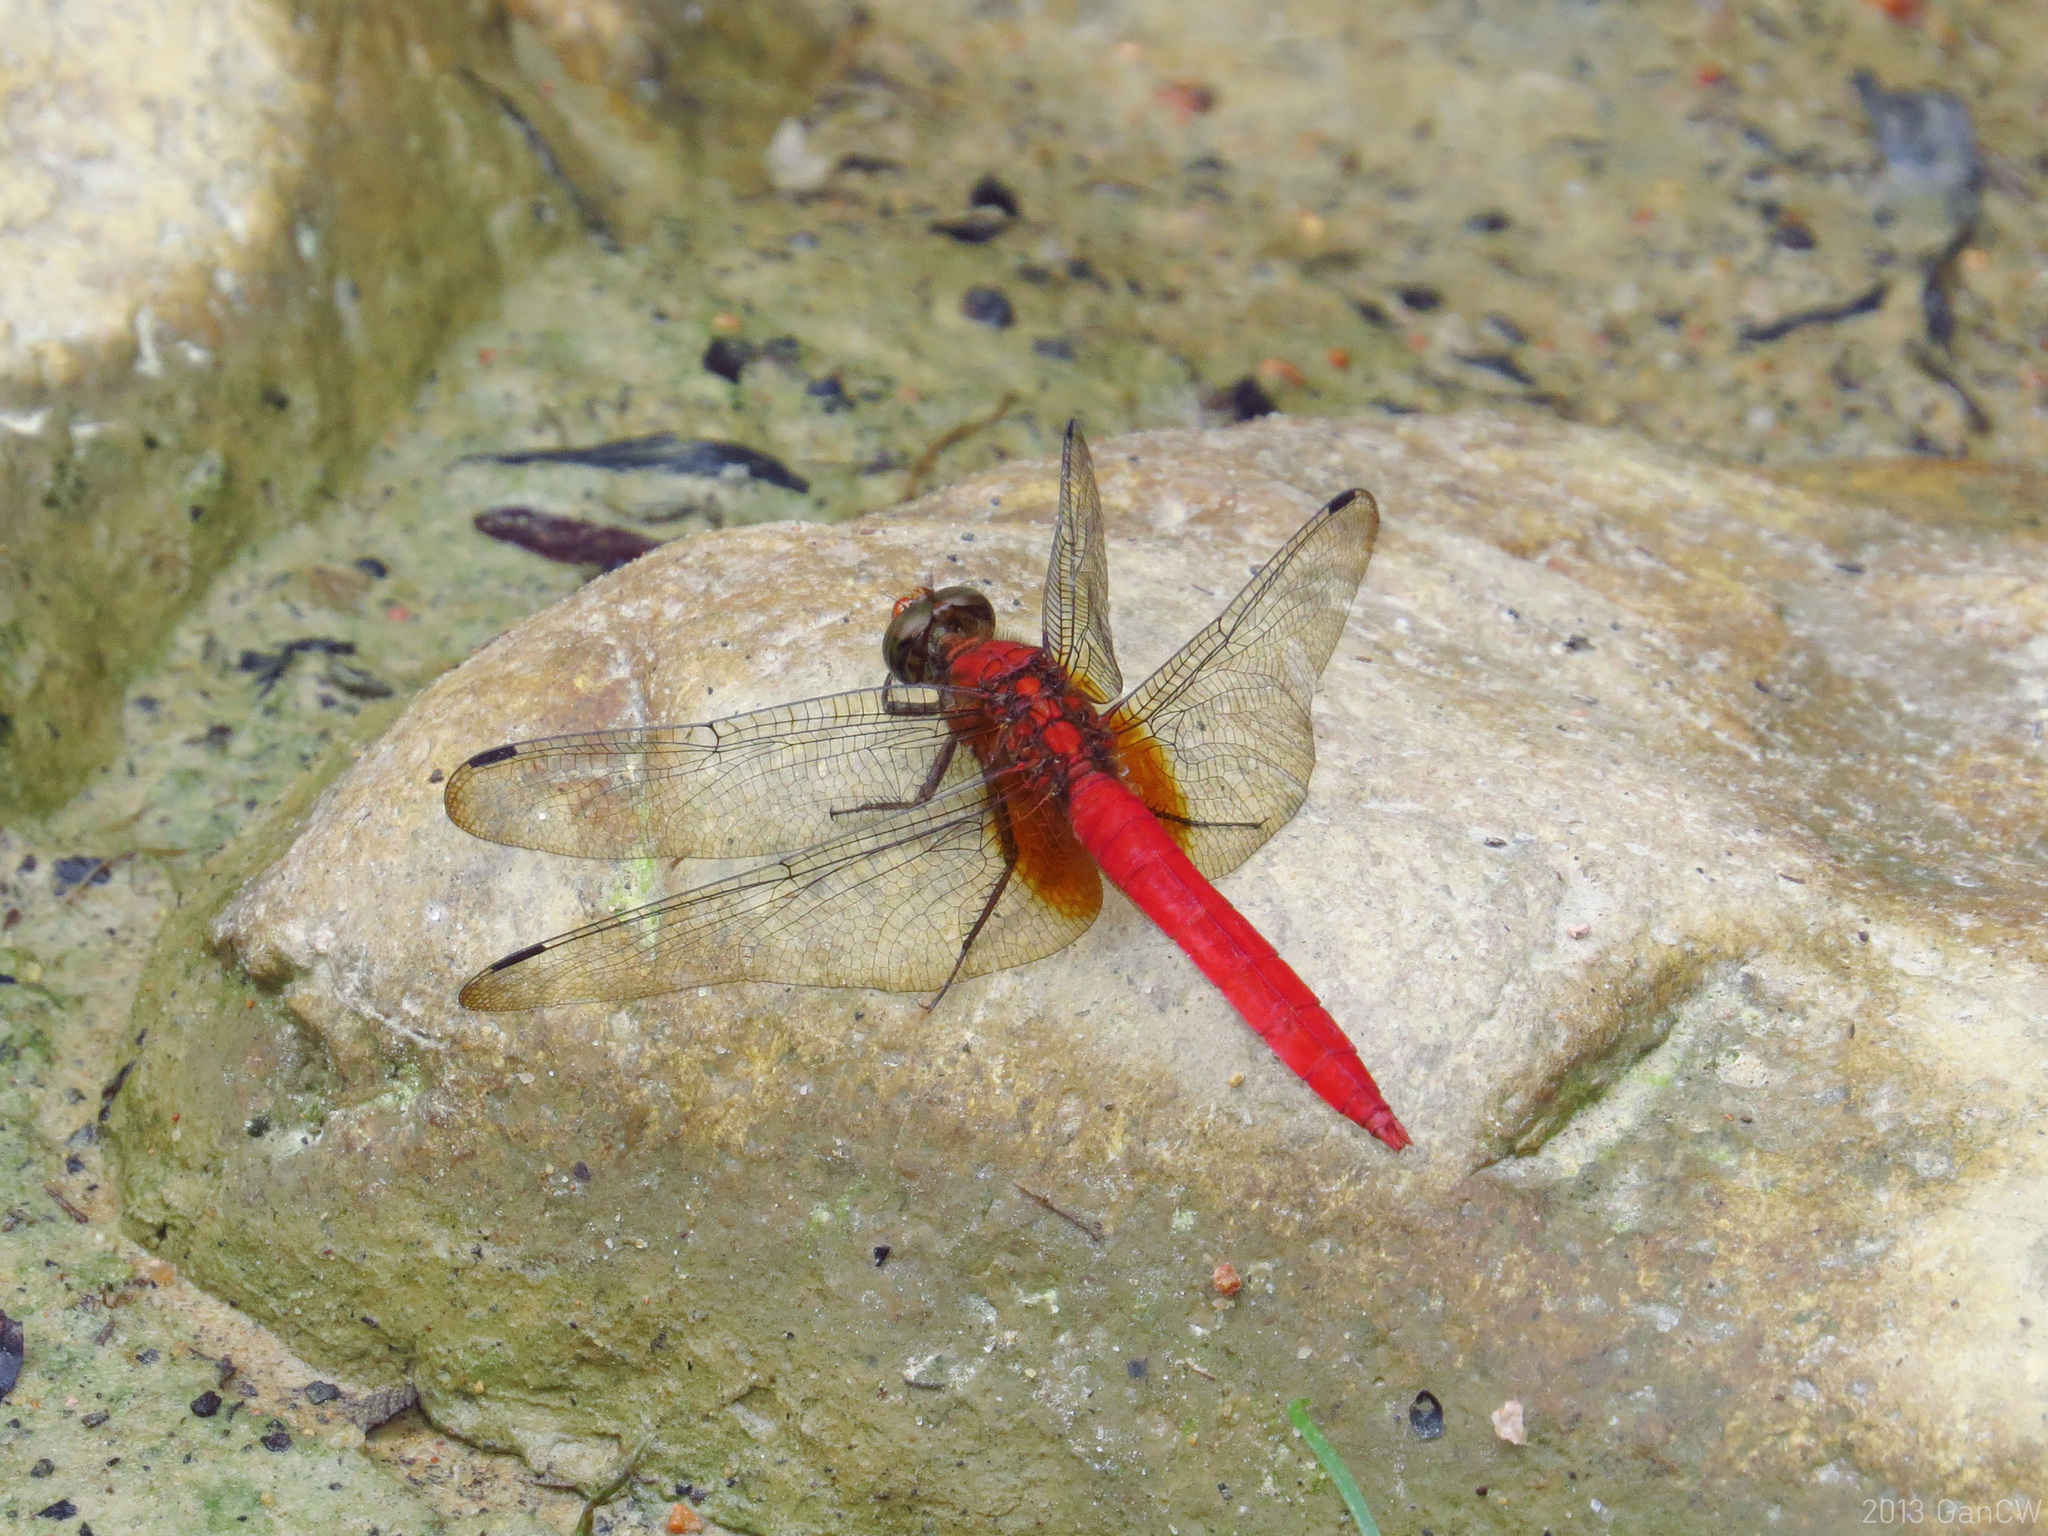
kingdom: Animalia
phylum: Arthropoda
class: Insecta
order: Odonata
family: Libellulidae
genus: Orthetrum
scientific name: Orthetrum testaceum
